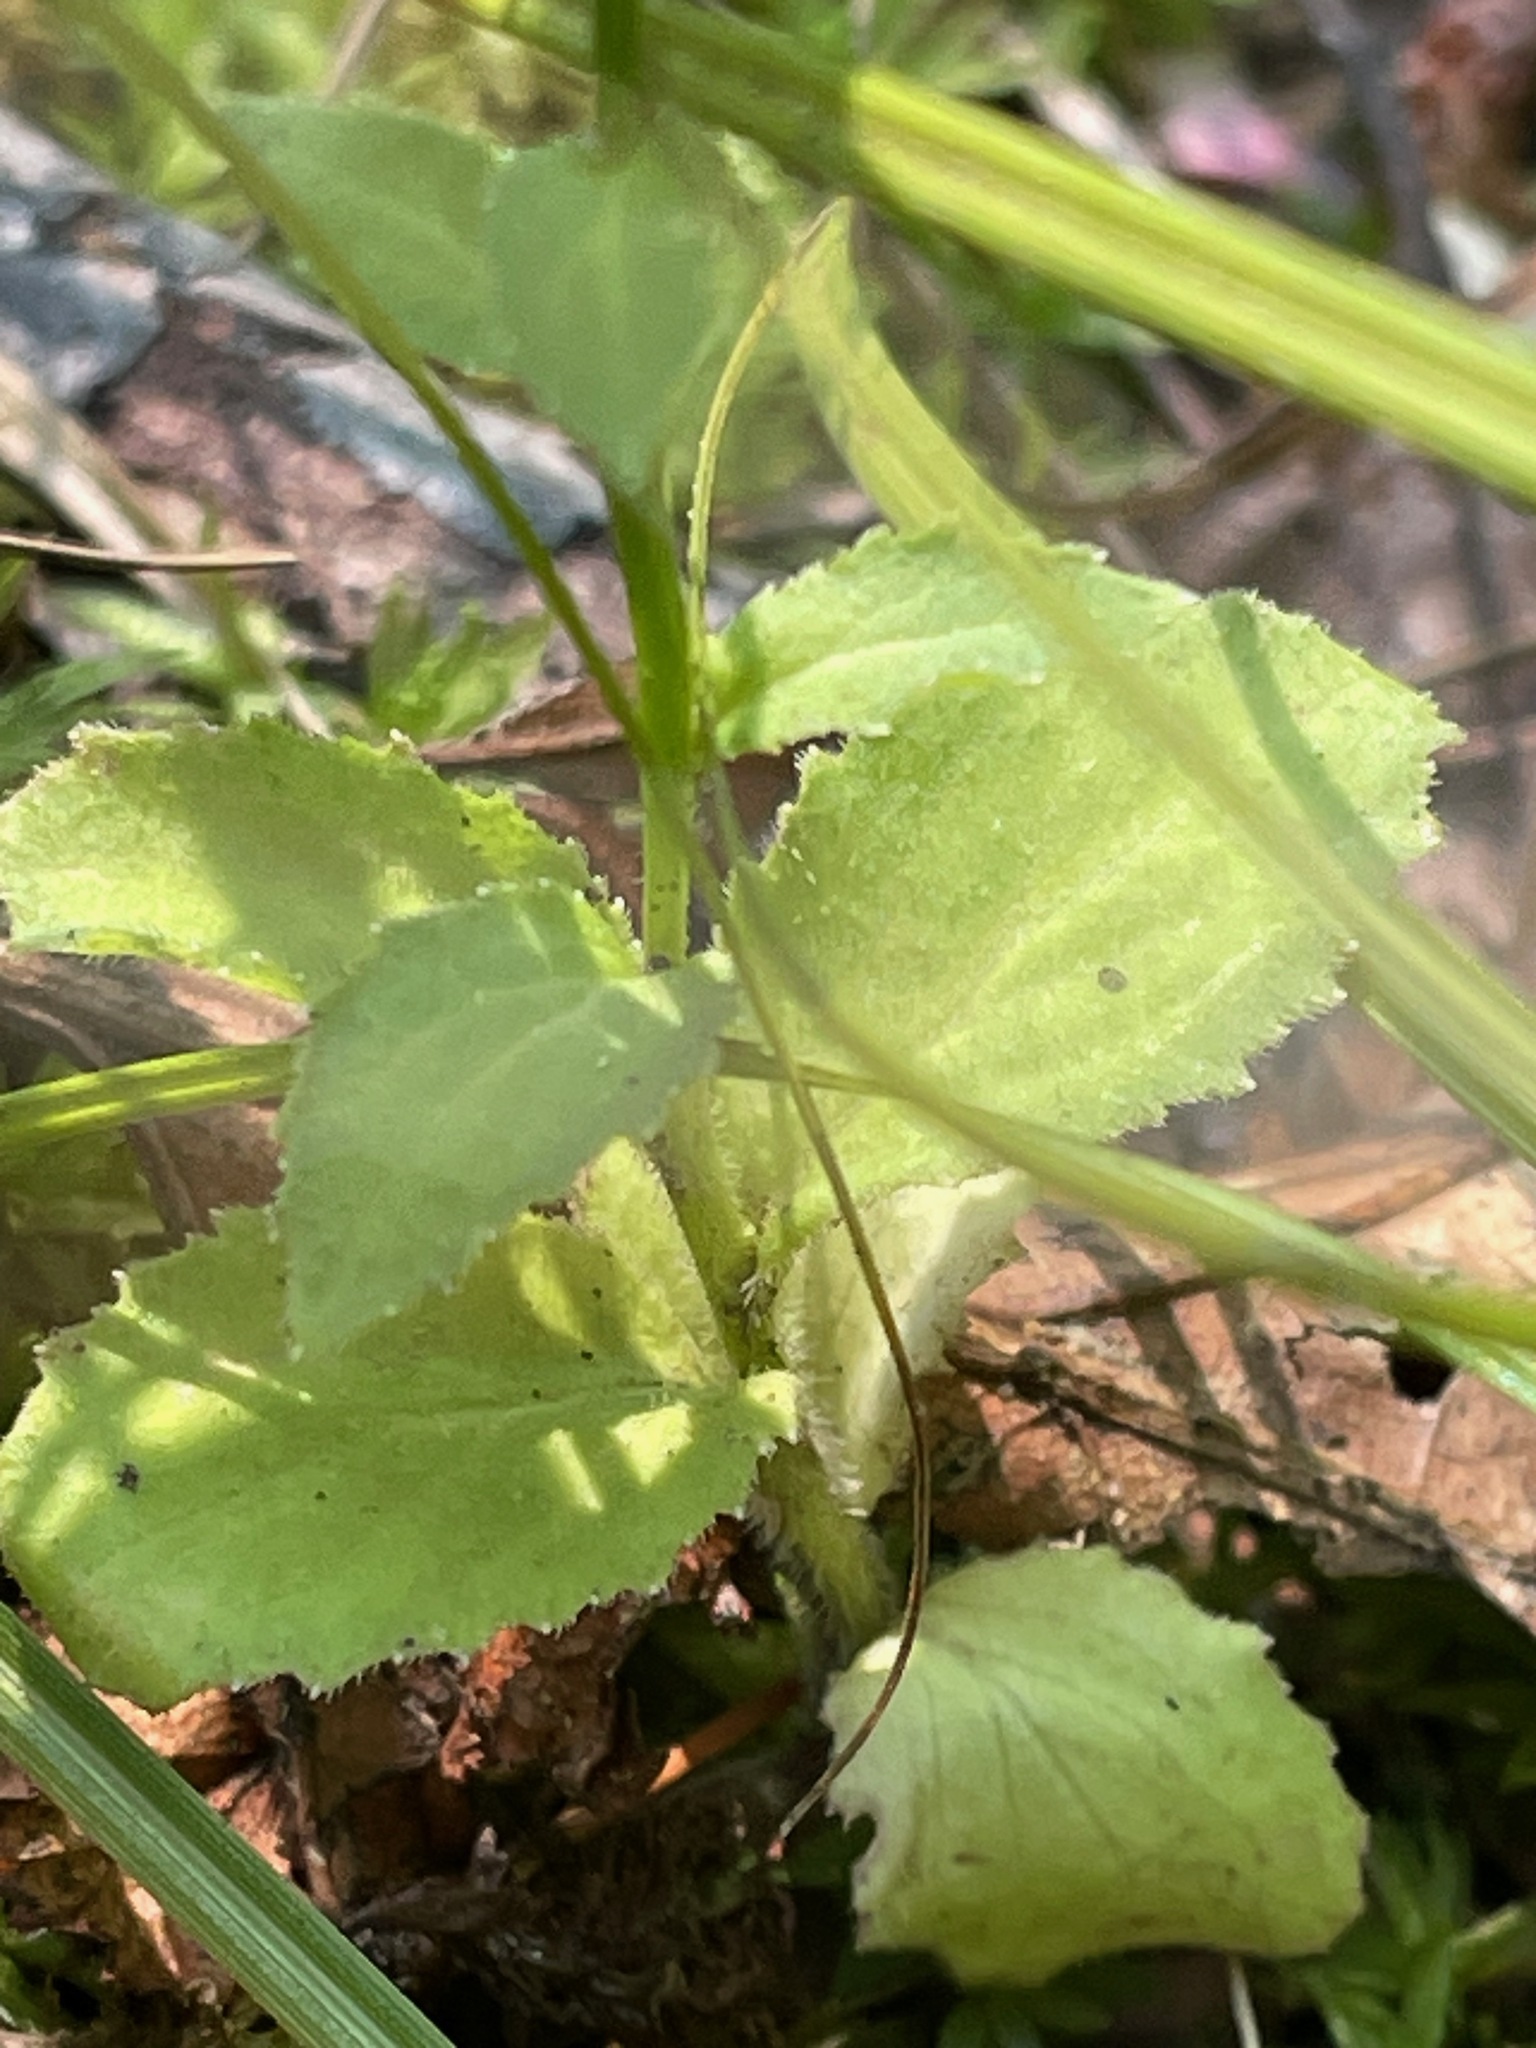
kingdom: Plantae
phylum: Tracheophyta
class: Magnoliopsida
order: Asterales
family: Campanulaceae
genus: Lobelia
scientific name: Lobelia inflata
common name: Indian tobacco
